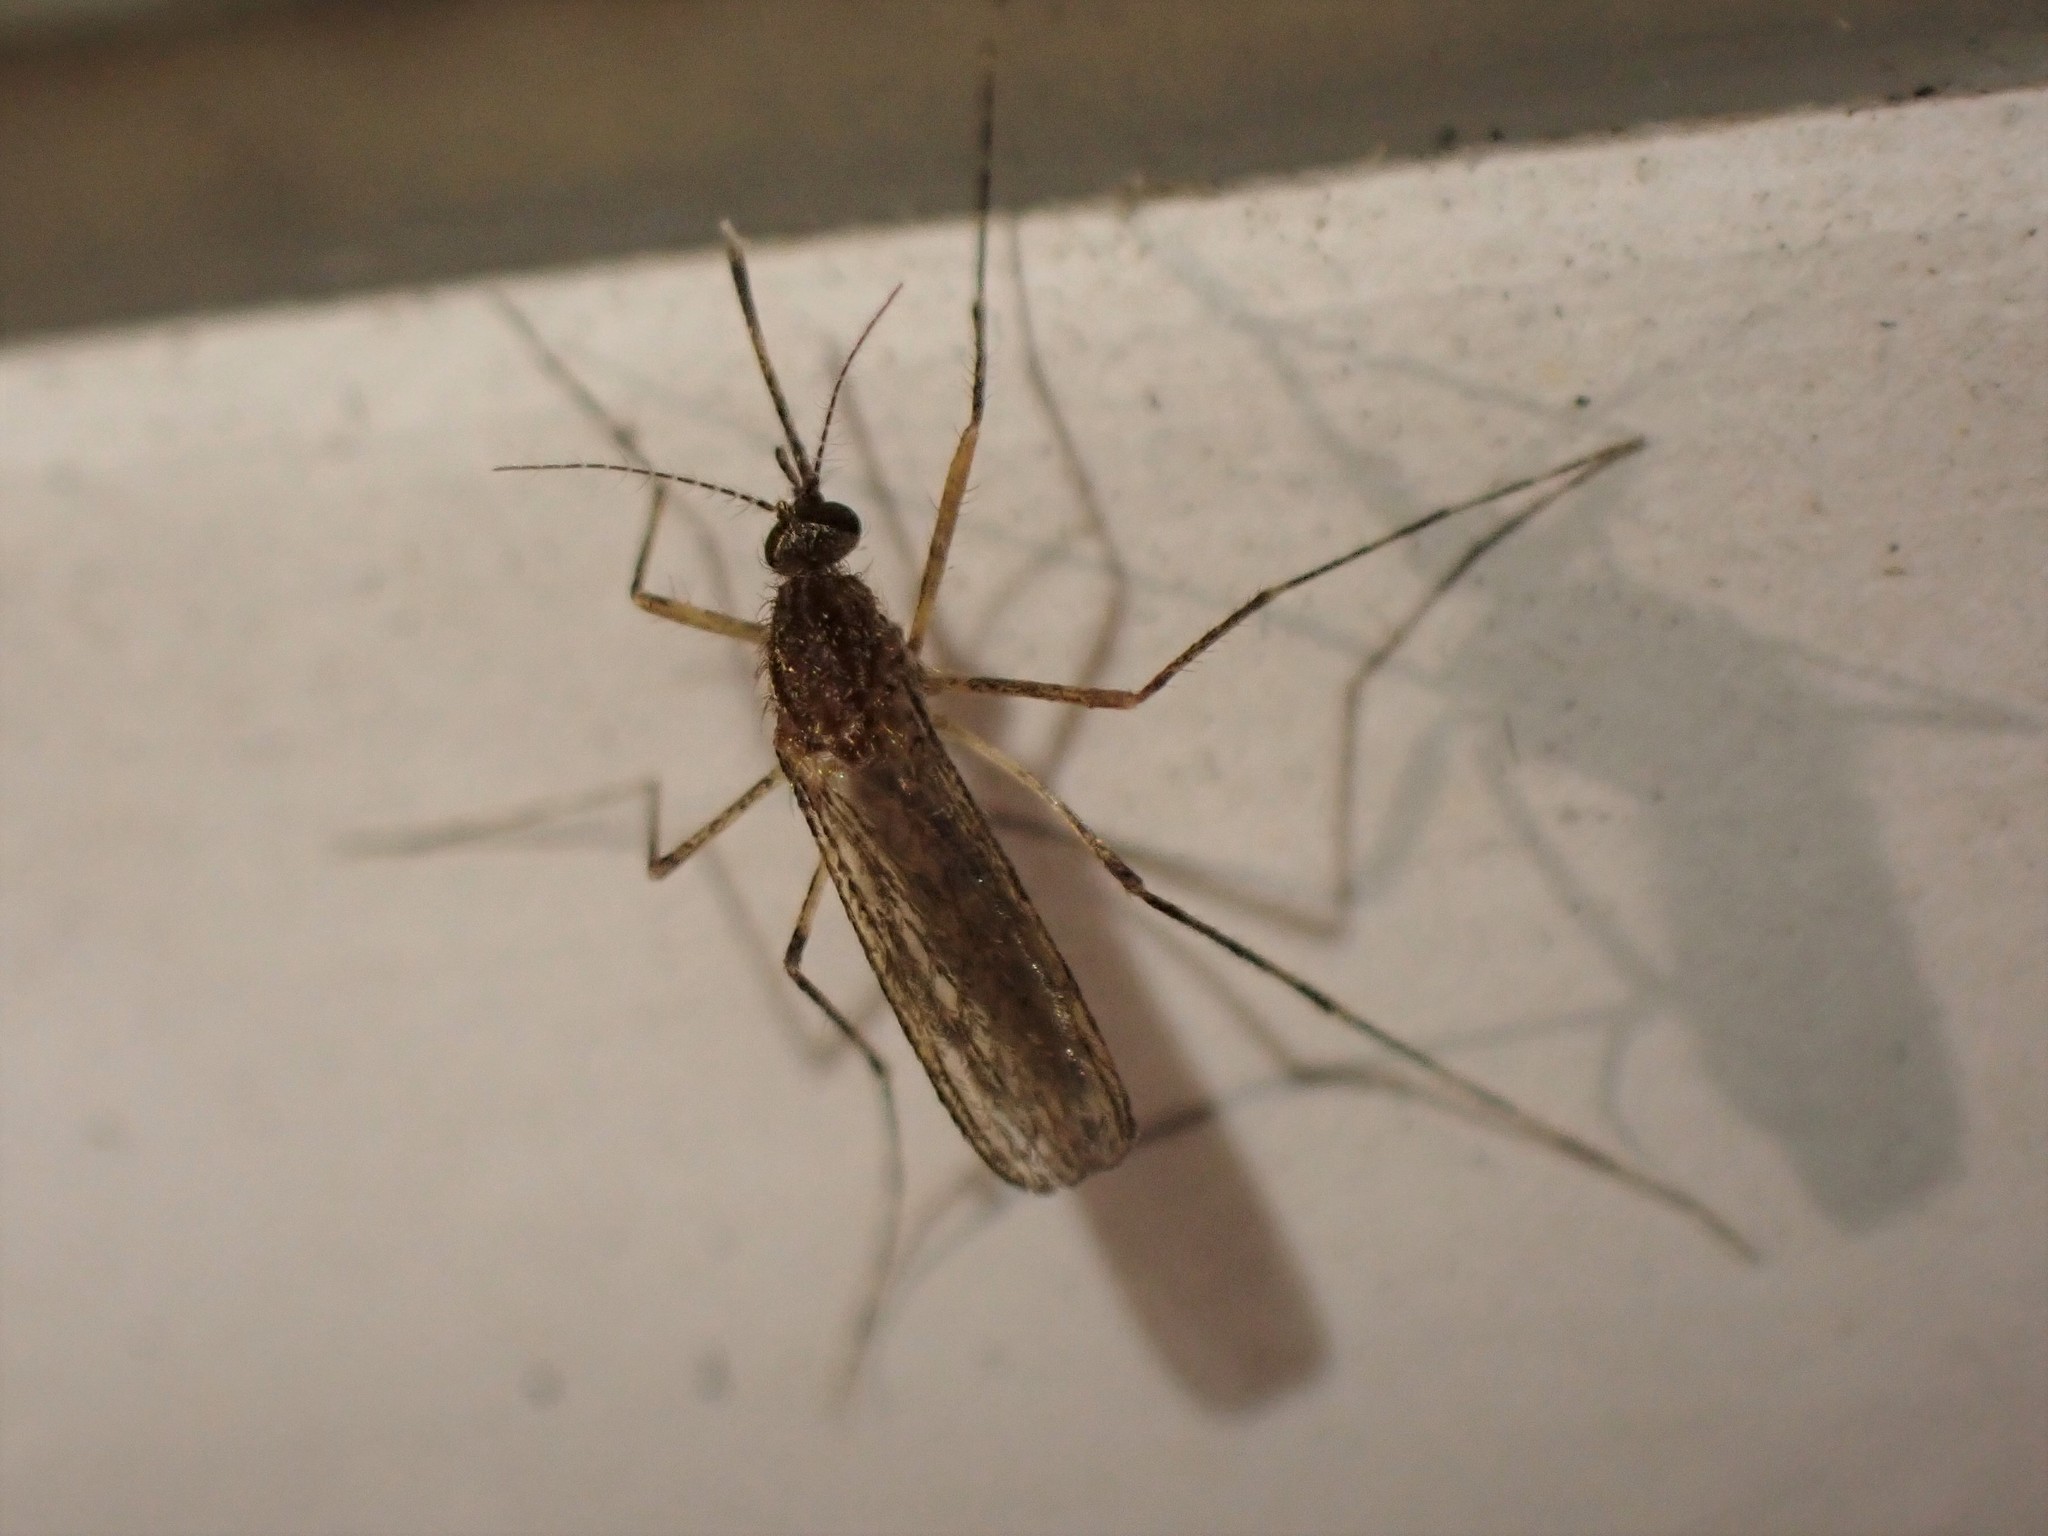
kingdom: Animalia
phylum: Arthropoda
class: Insecta
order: Diptera
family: Culicidae
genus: Coquillettidia
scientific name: Coquillettidia perturbans
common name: Cattail mosquito
